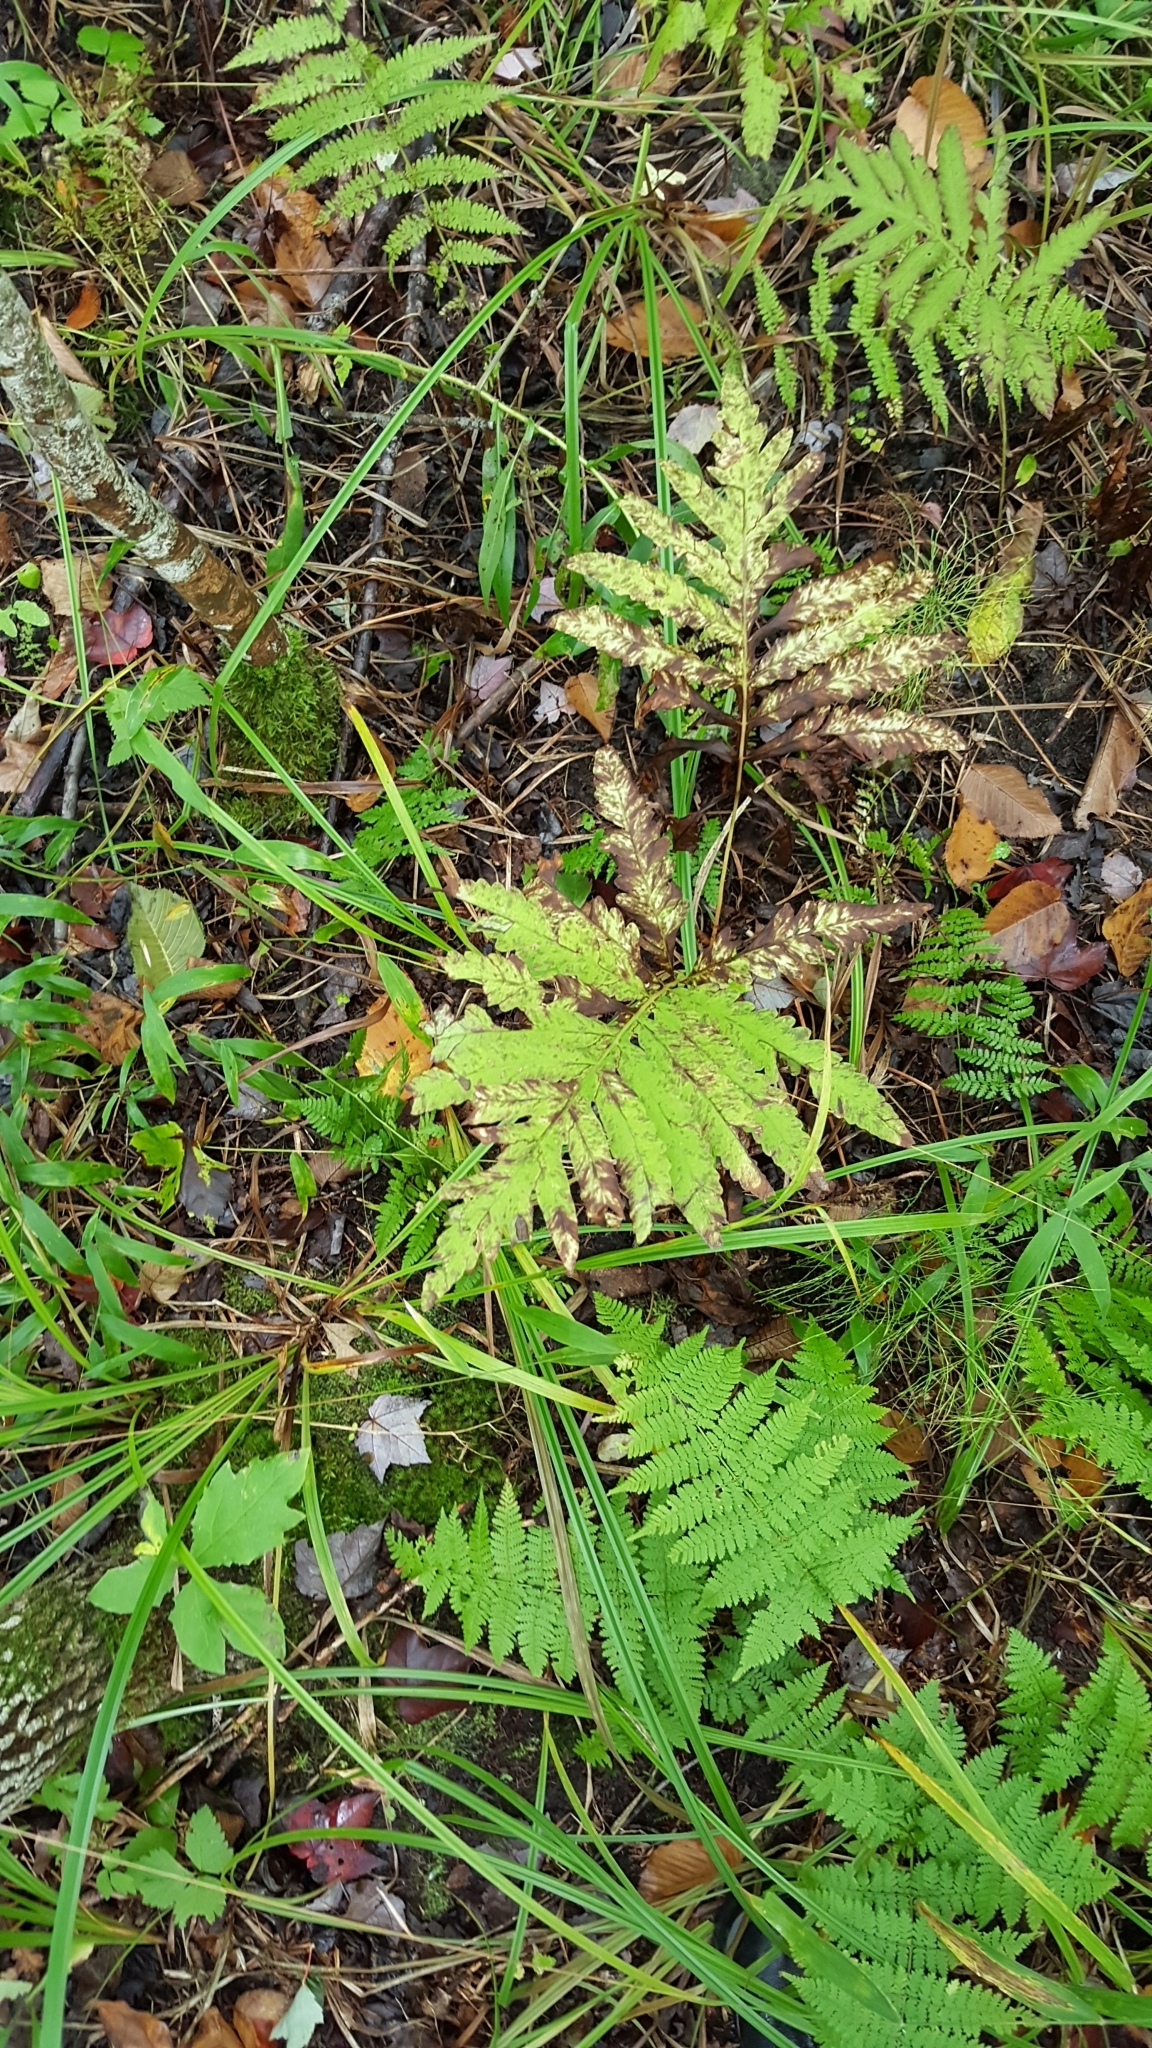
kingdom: Plantae
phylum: Tracheophyta
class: Polypodiopsida
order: Polypodiales
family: Onocleaceae
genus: Onoclea
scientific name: Onoclea sensibilis
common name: Sensitive fern
